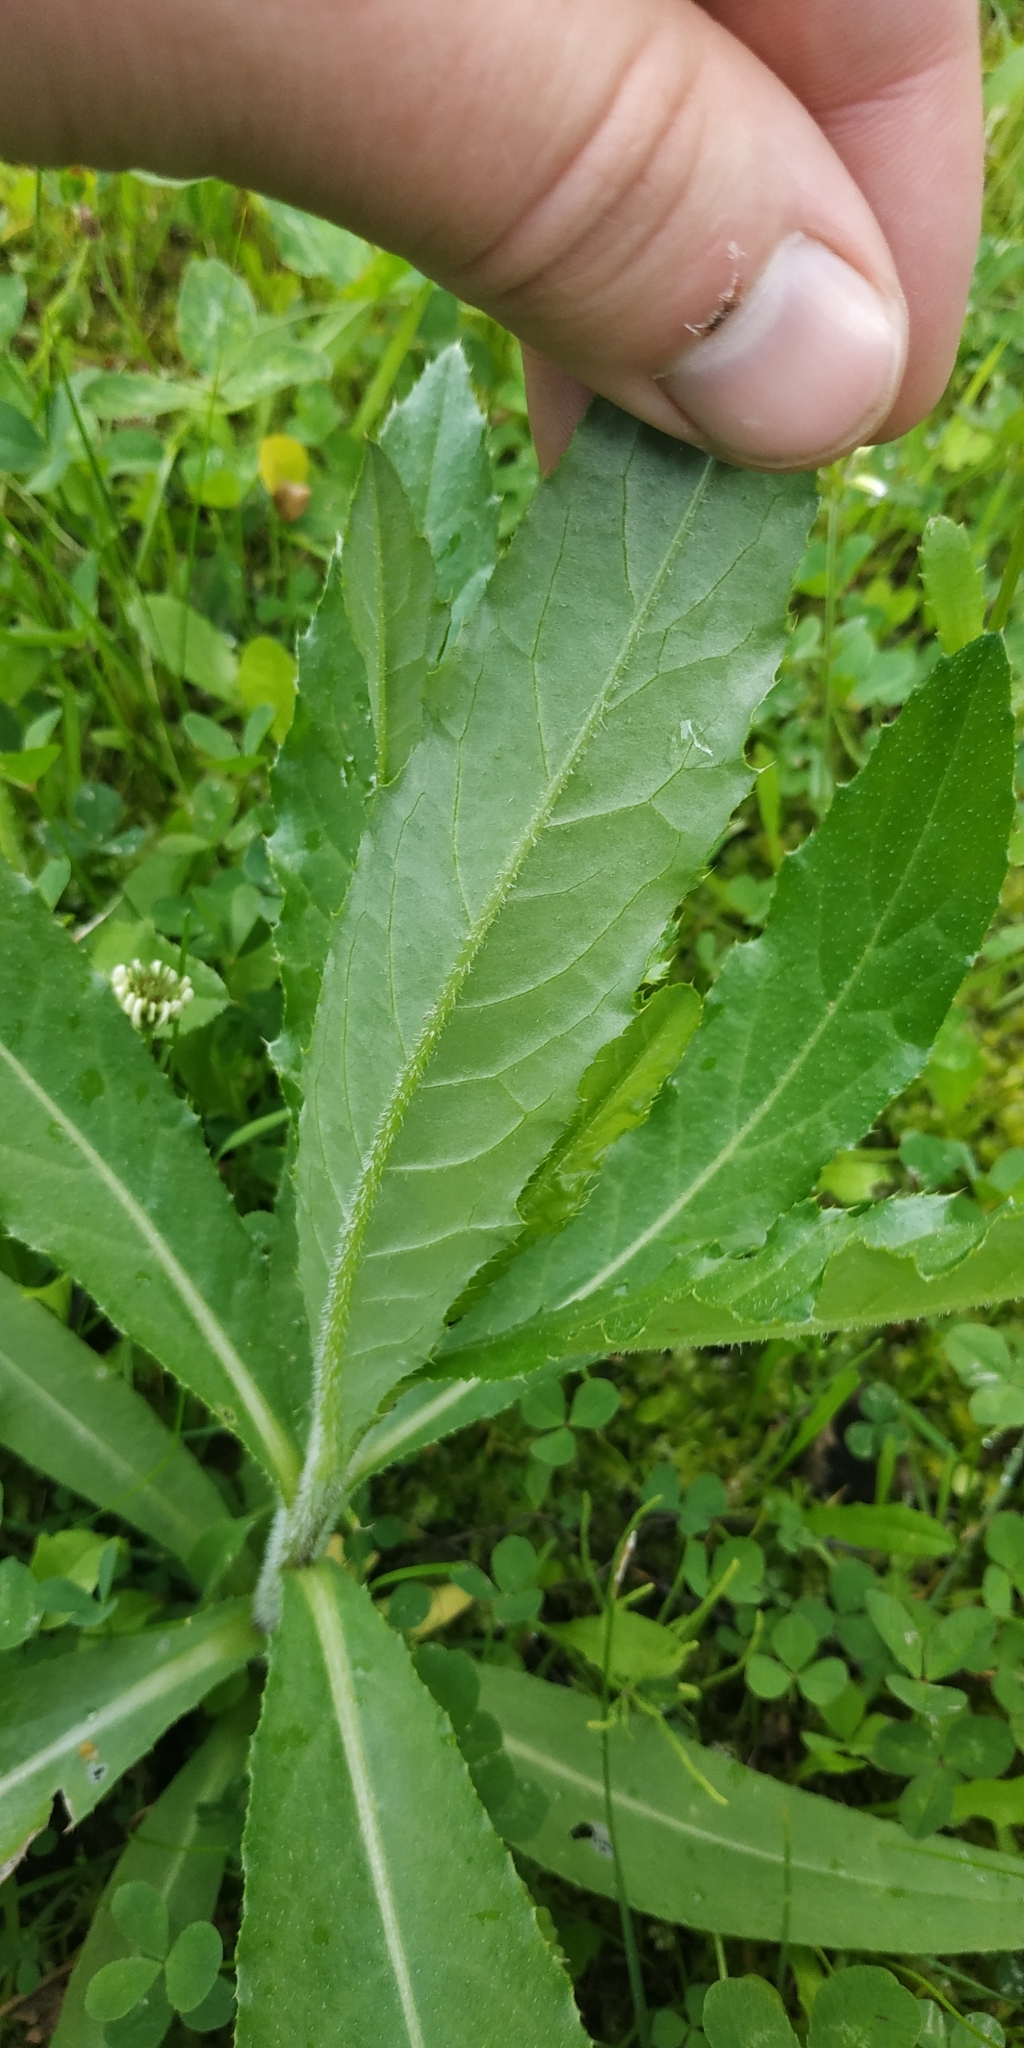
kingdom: Plantae
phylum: Tracheophyta
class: Magnoliopsida
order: Asterales
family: Asteraceae
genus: Cirsium
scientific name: Cirsium arvense
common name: Creeping thistle
